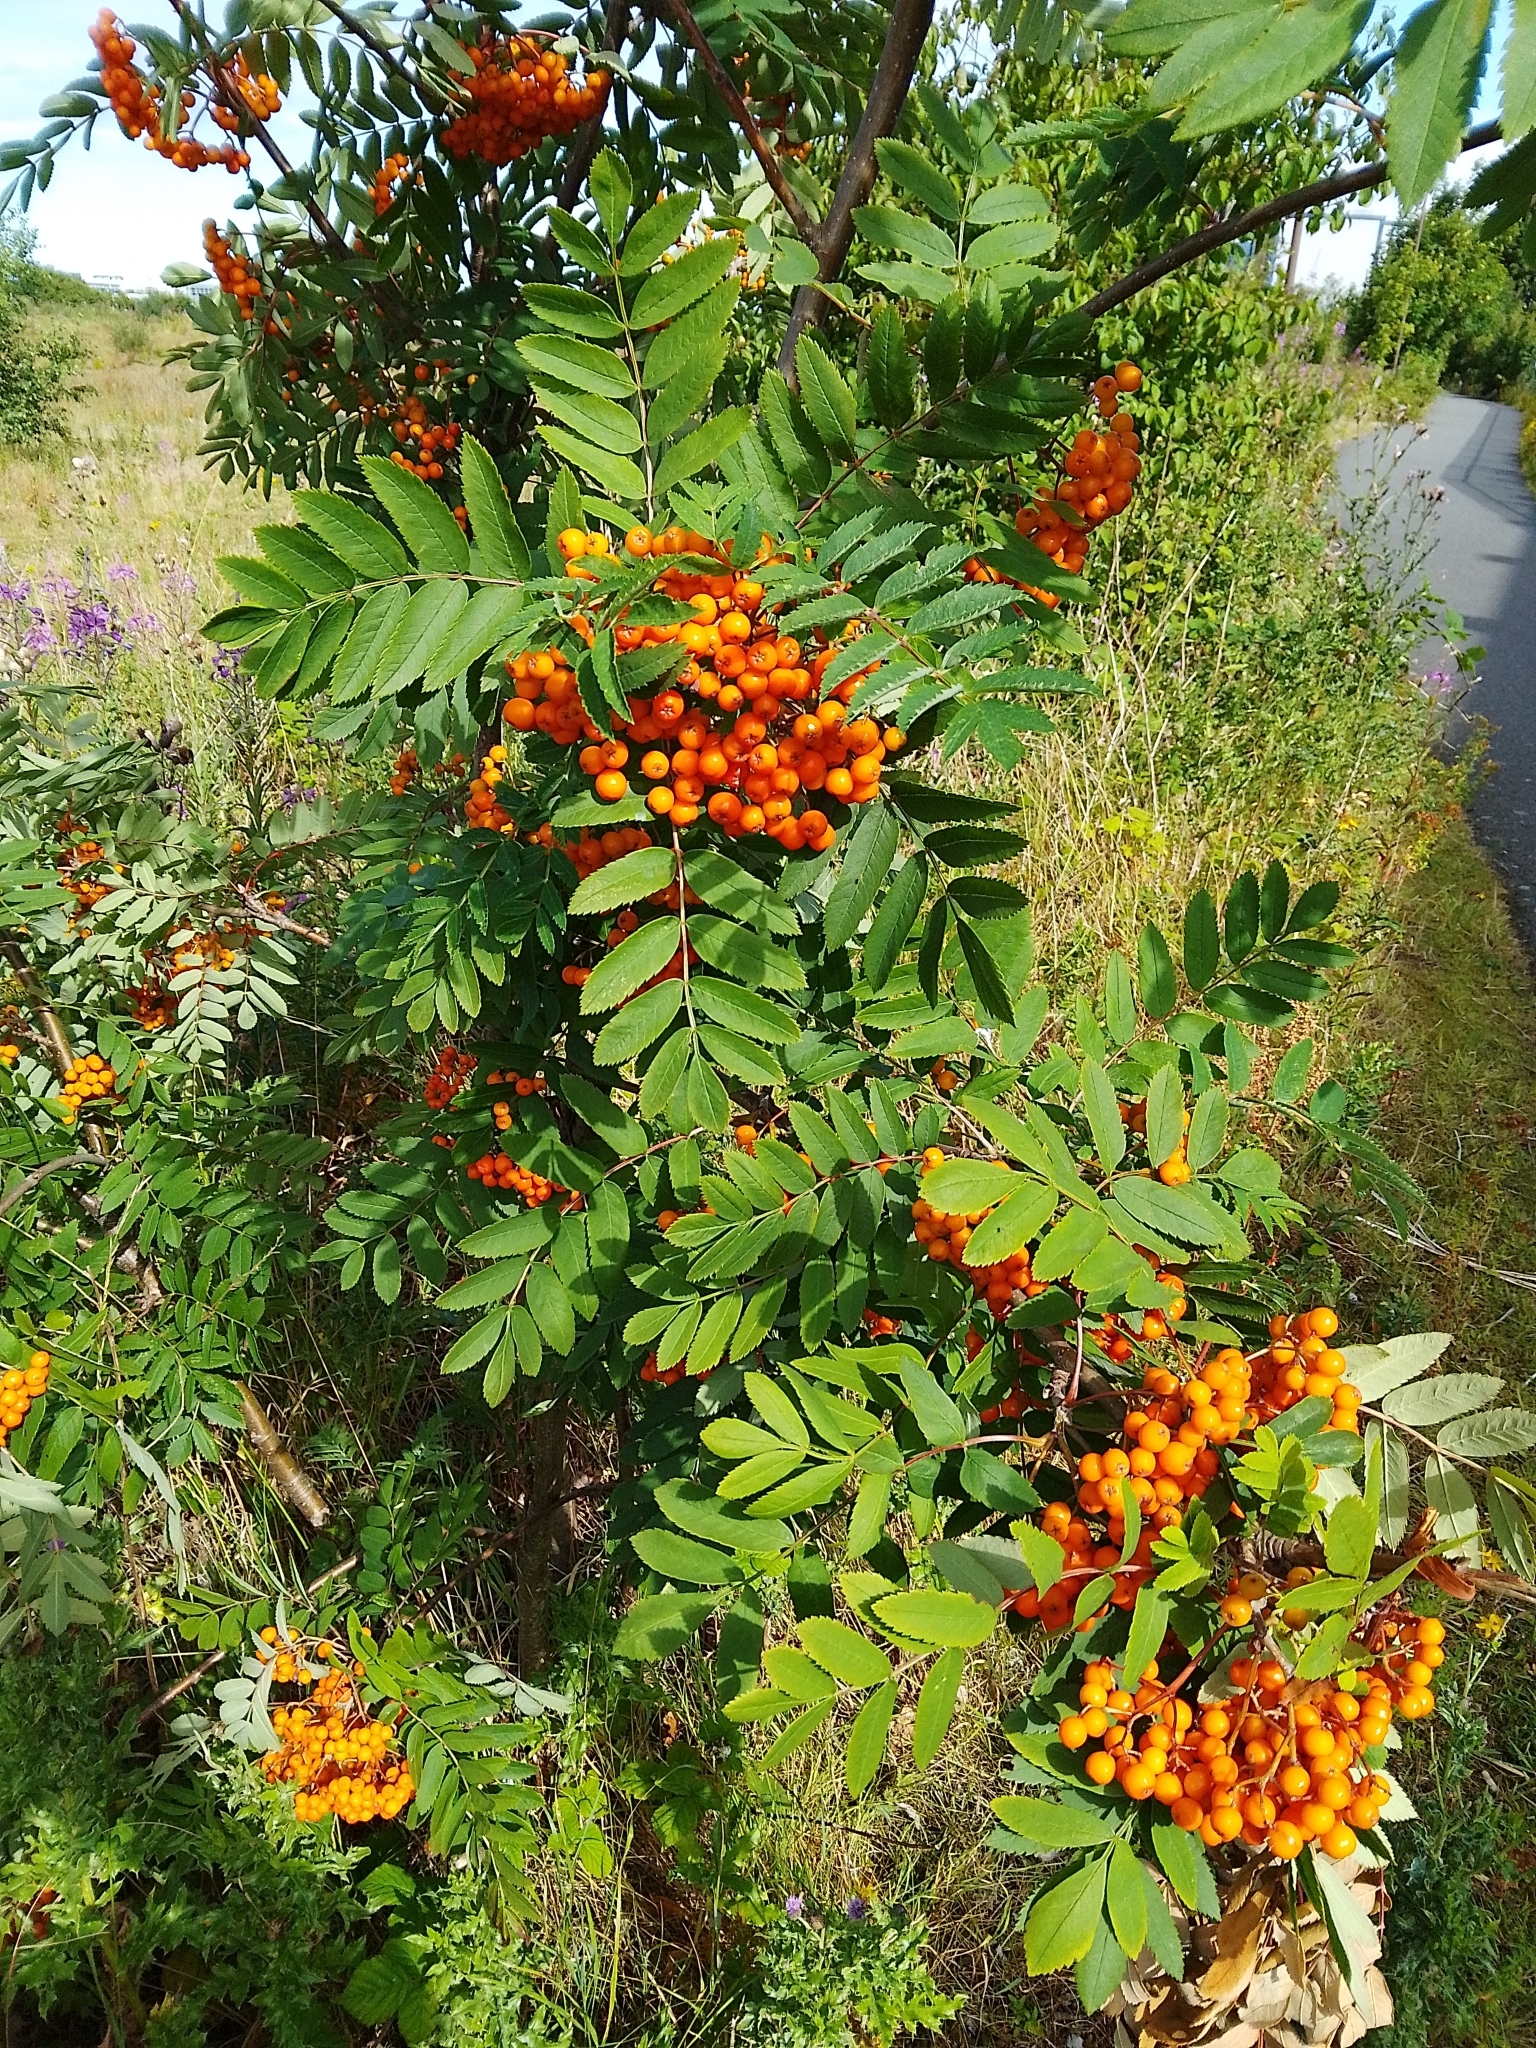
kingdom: Plantae
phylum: Tracheophyta
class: Magnoliopsida
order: Rosales
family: Rosaceae
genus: Sorbus
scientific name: Sorbus aucuparia
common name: Rowan
